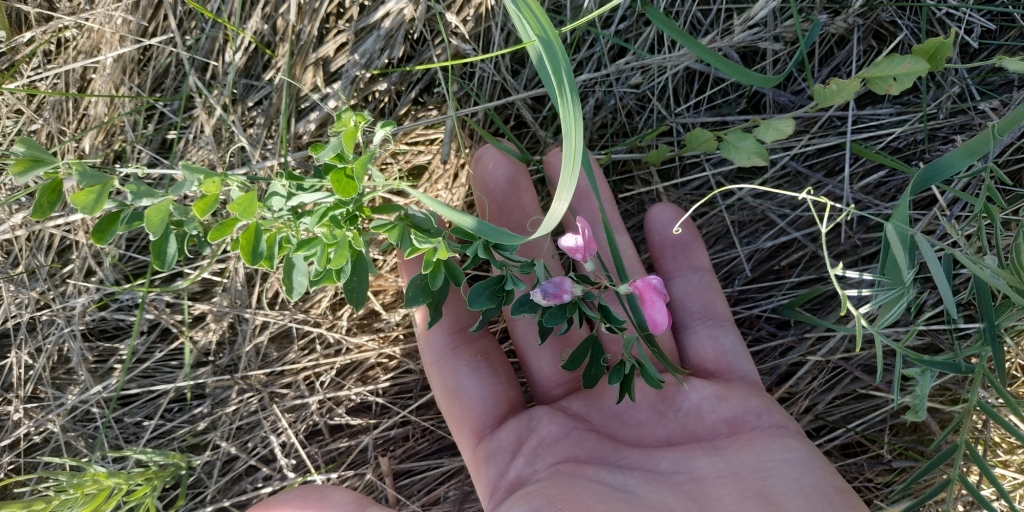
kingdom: Plantae
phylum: Tracheophyta
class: Magnoliopsida
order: Fabales
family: Fabaceae
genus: Lathyrus
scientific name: Lathyrus tuberosus
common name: Tuberous pea
